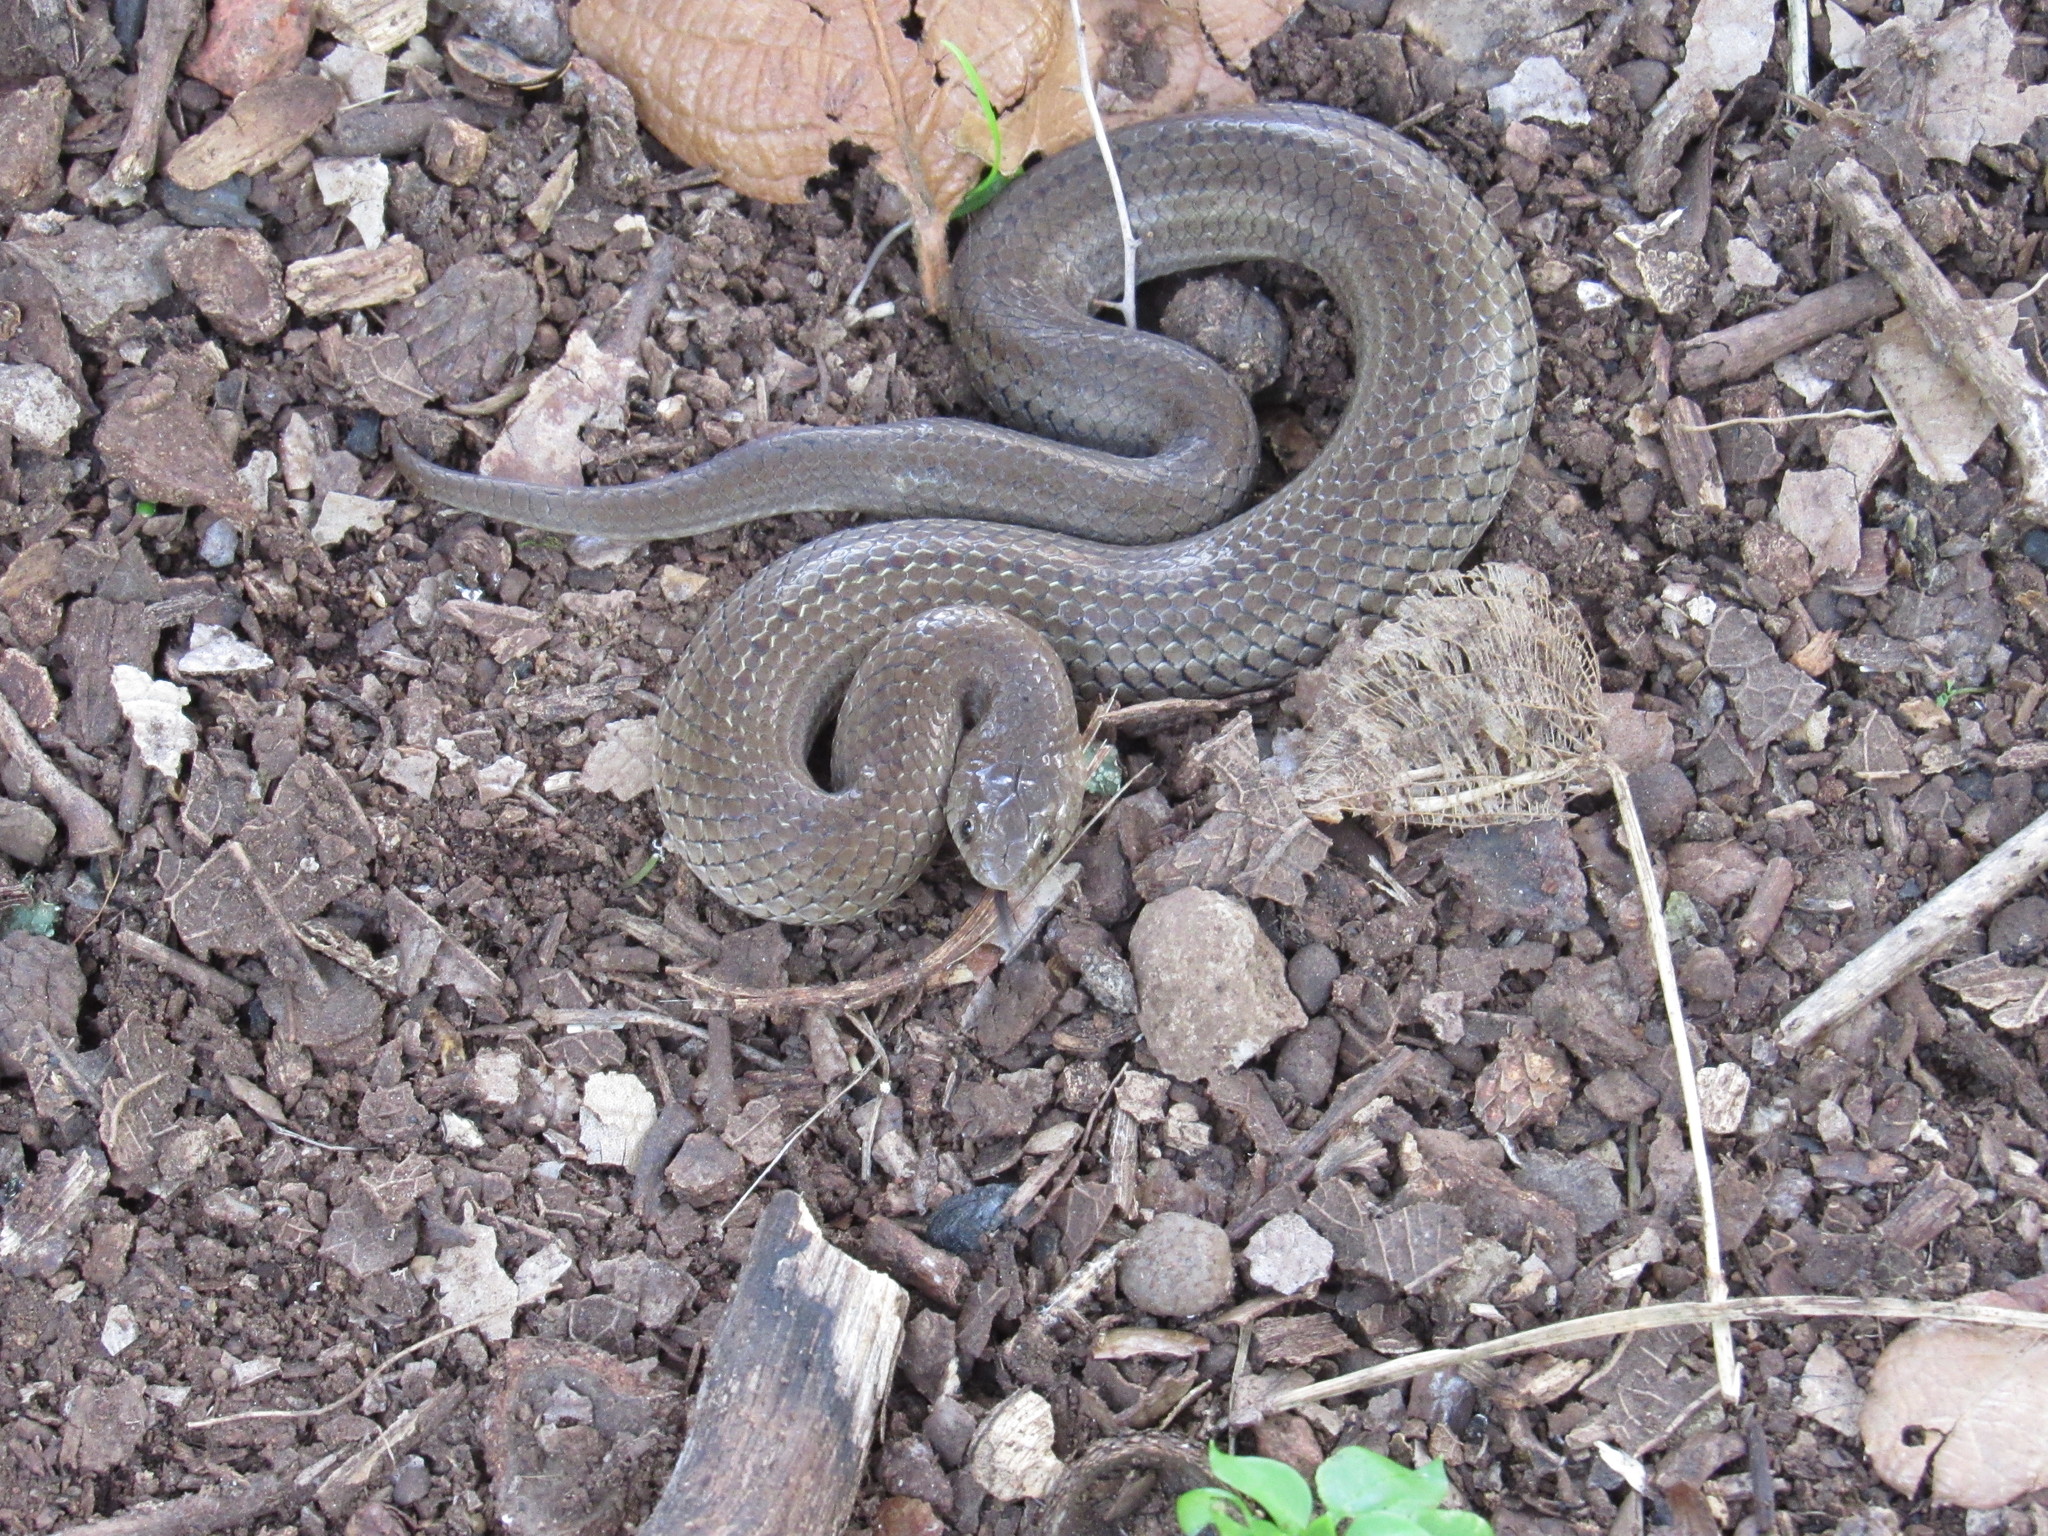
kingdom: Animalia
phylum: Chordata
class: Squamata
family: Colubridae
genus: Conopsis
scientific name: Conopsis nasus
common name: Largenose earth snake
